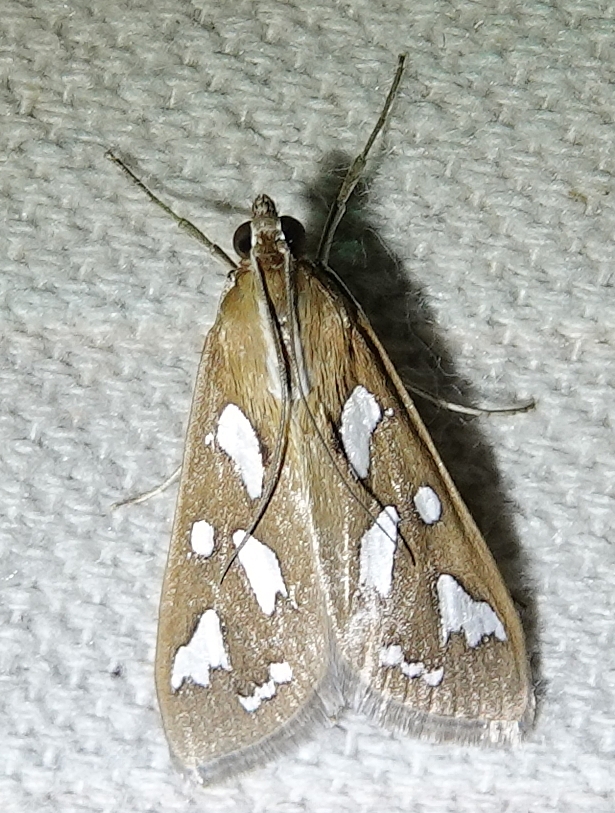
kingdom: Animalia
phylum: Arthropoda
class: Insecta
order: Lepidoptera
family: Crambidae
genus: Diastictis
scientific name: Diastictis fracturalis
